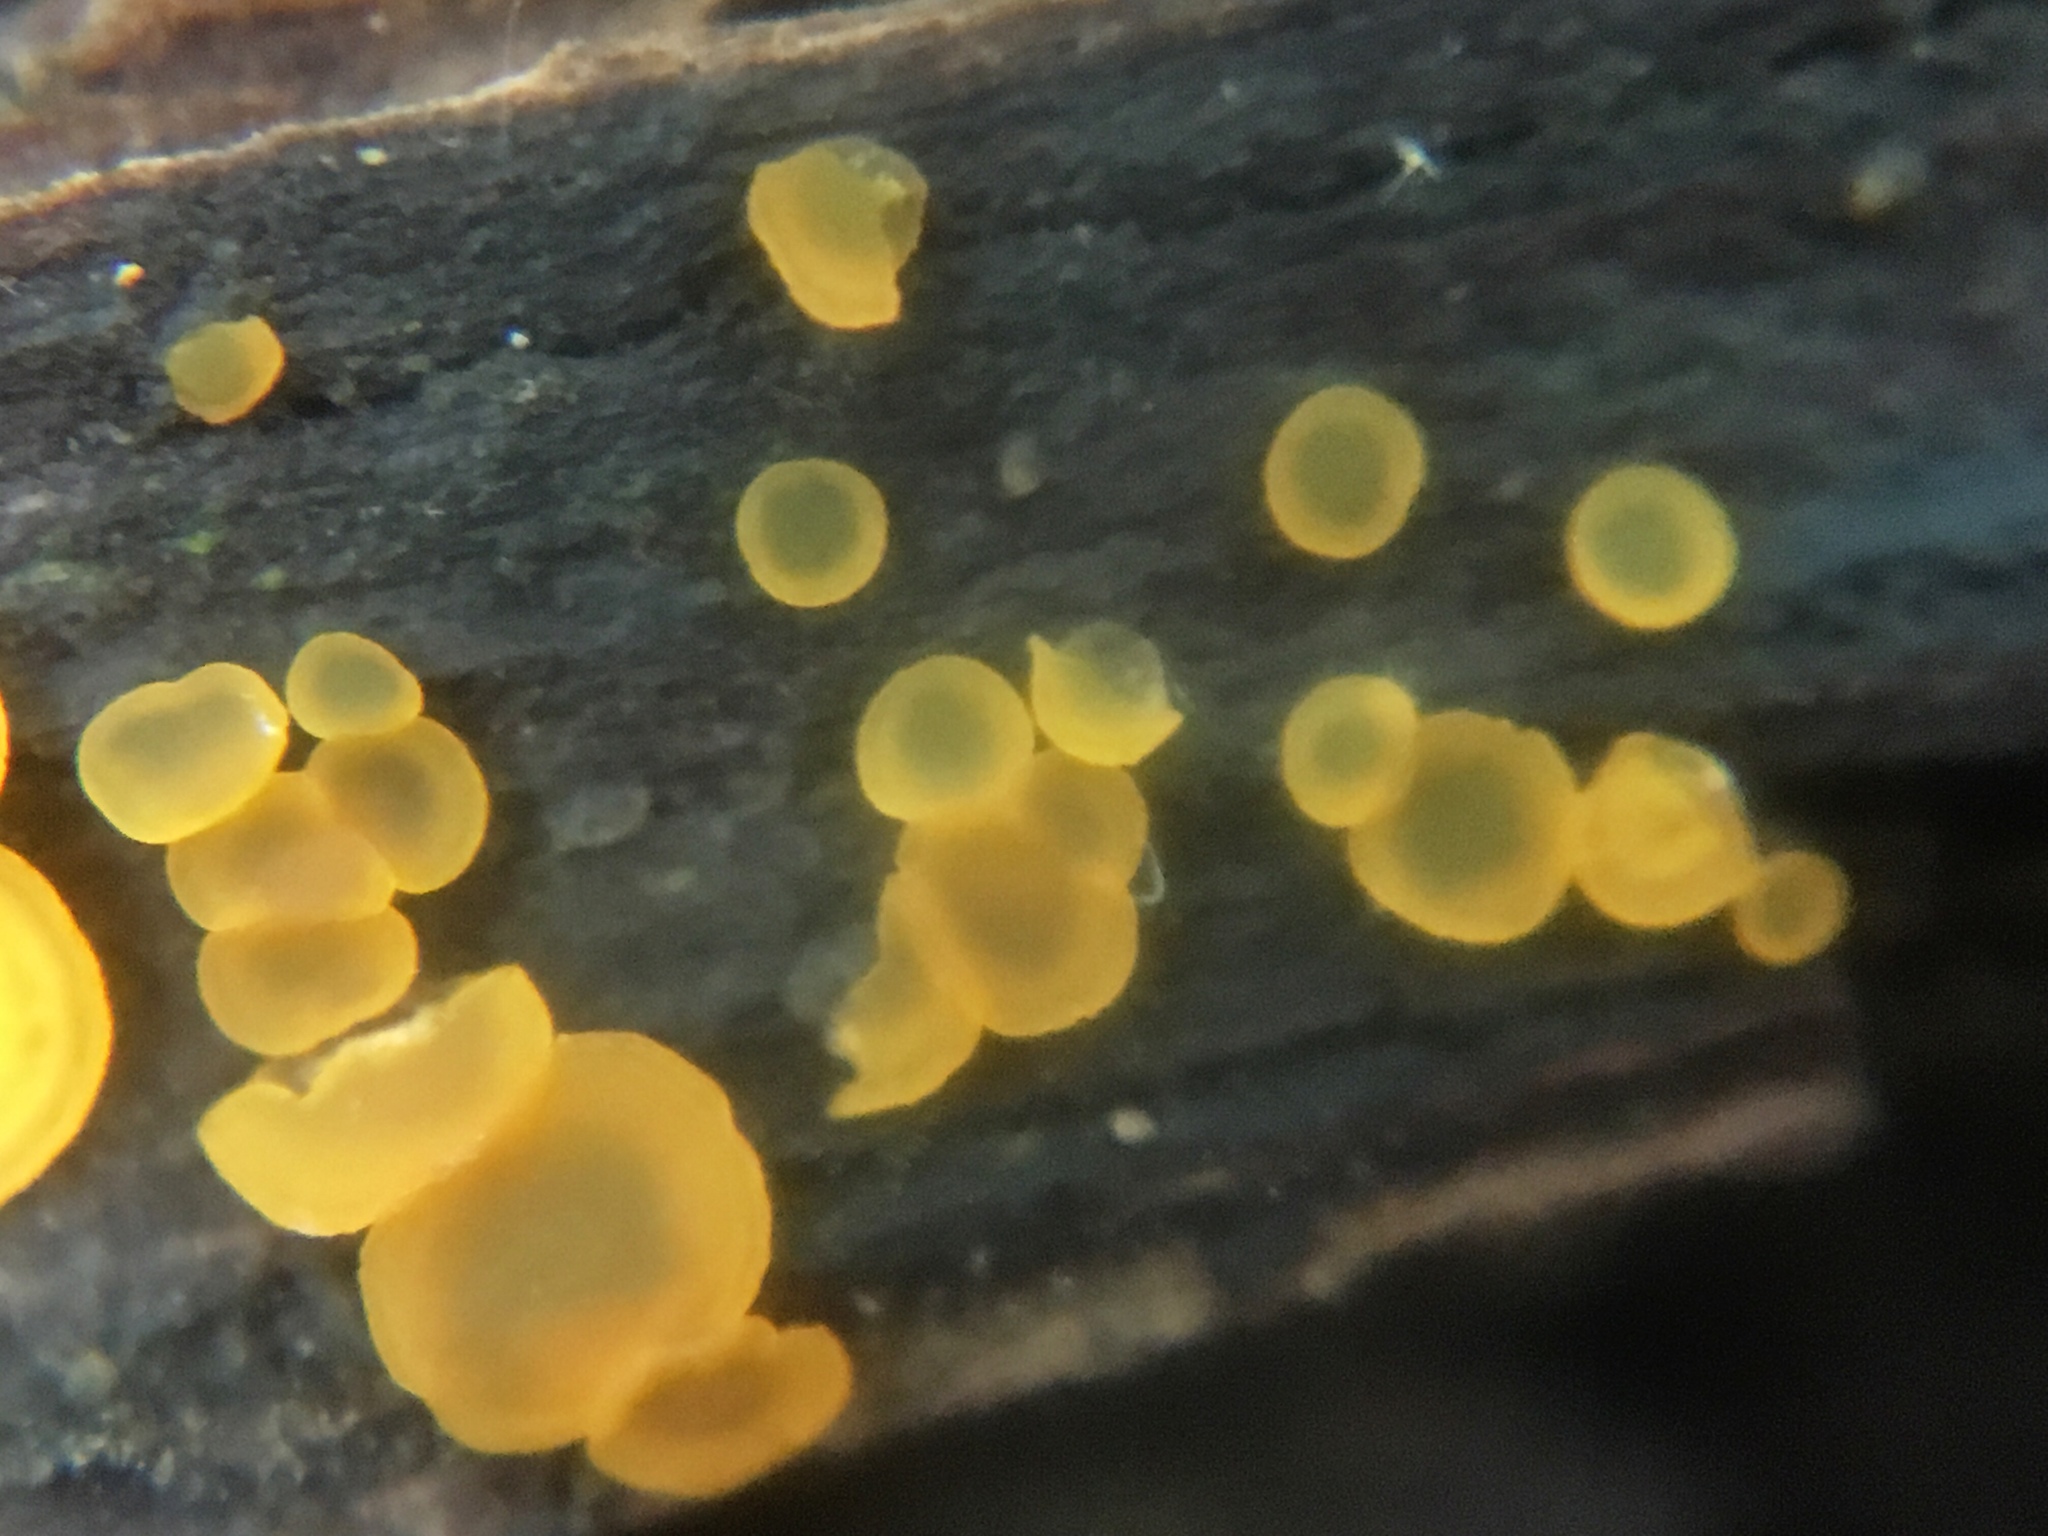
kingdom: Fungi
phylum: Ascomycota
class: Orbiliomycetes
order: Orbiliales
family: Orbiliaceae
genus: Orbilia
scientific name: Orbilia
